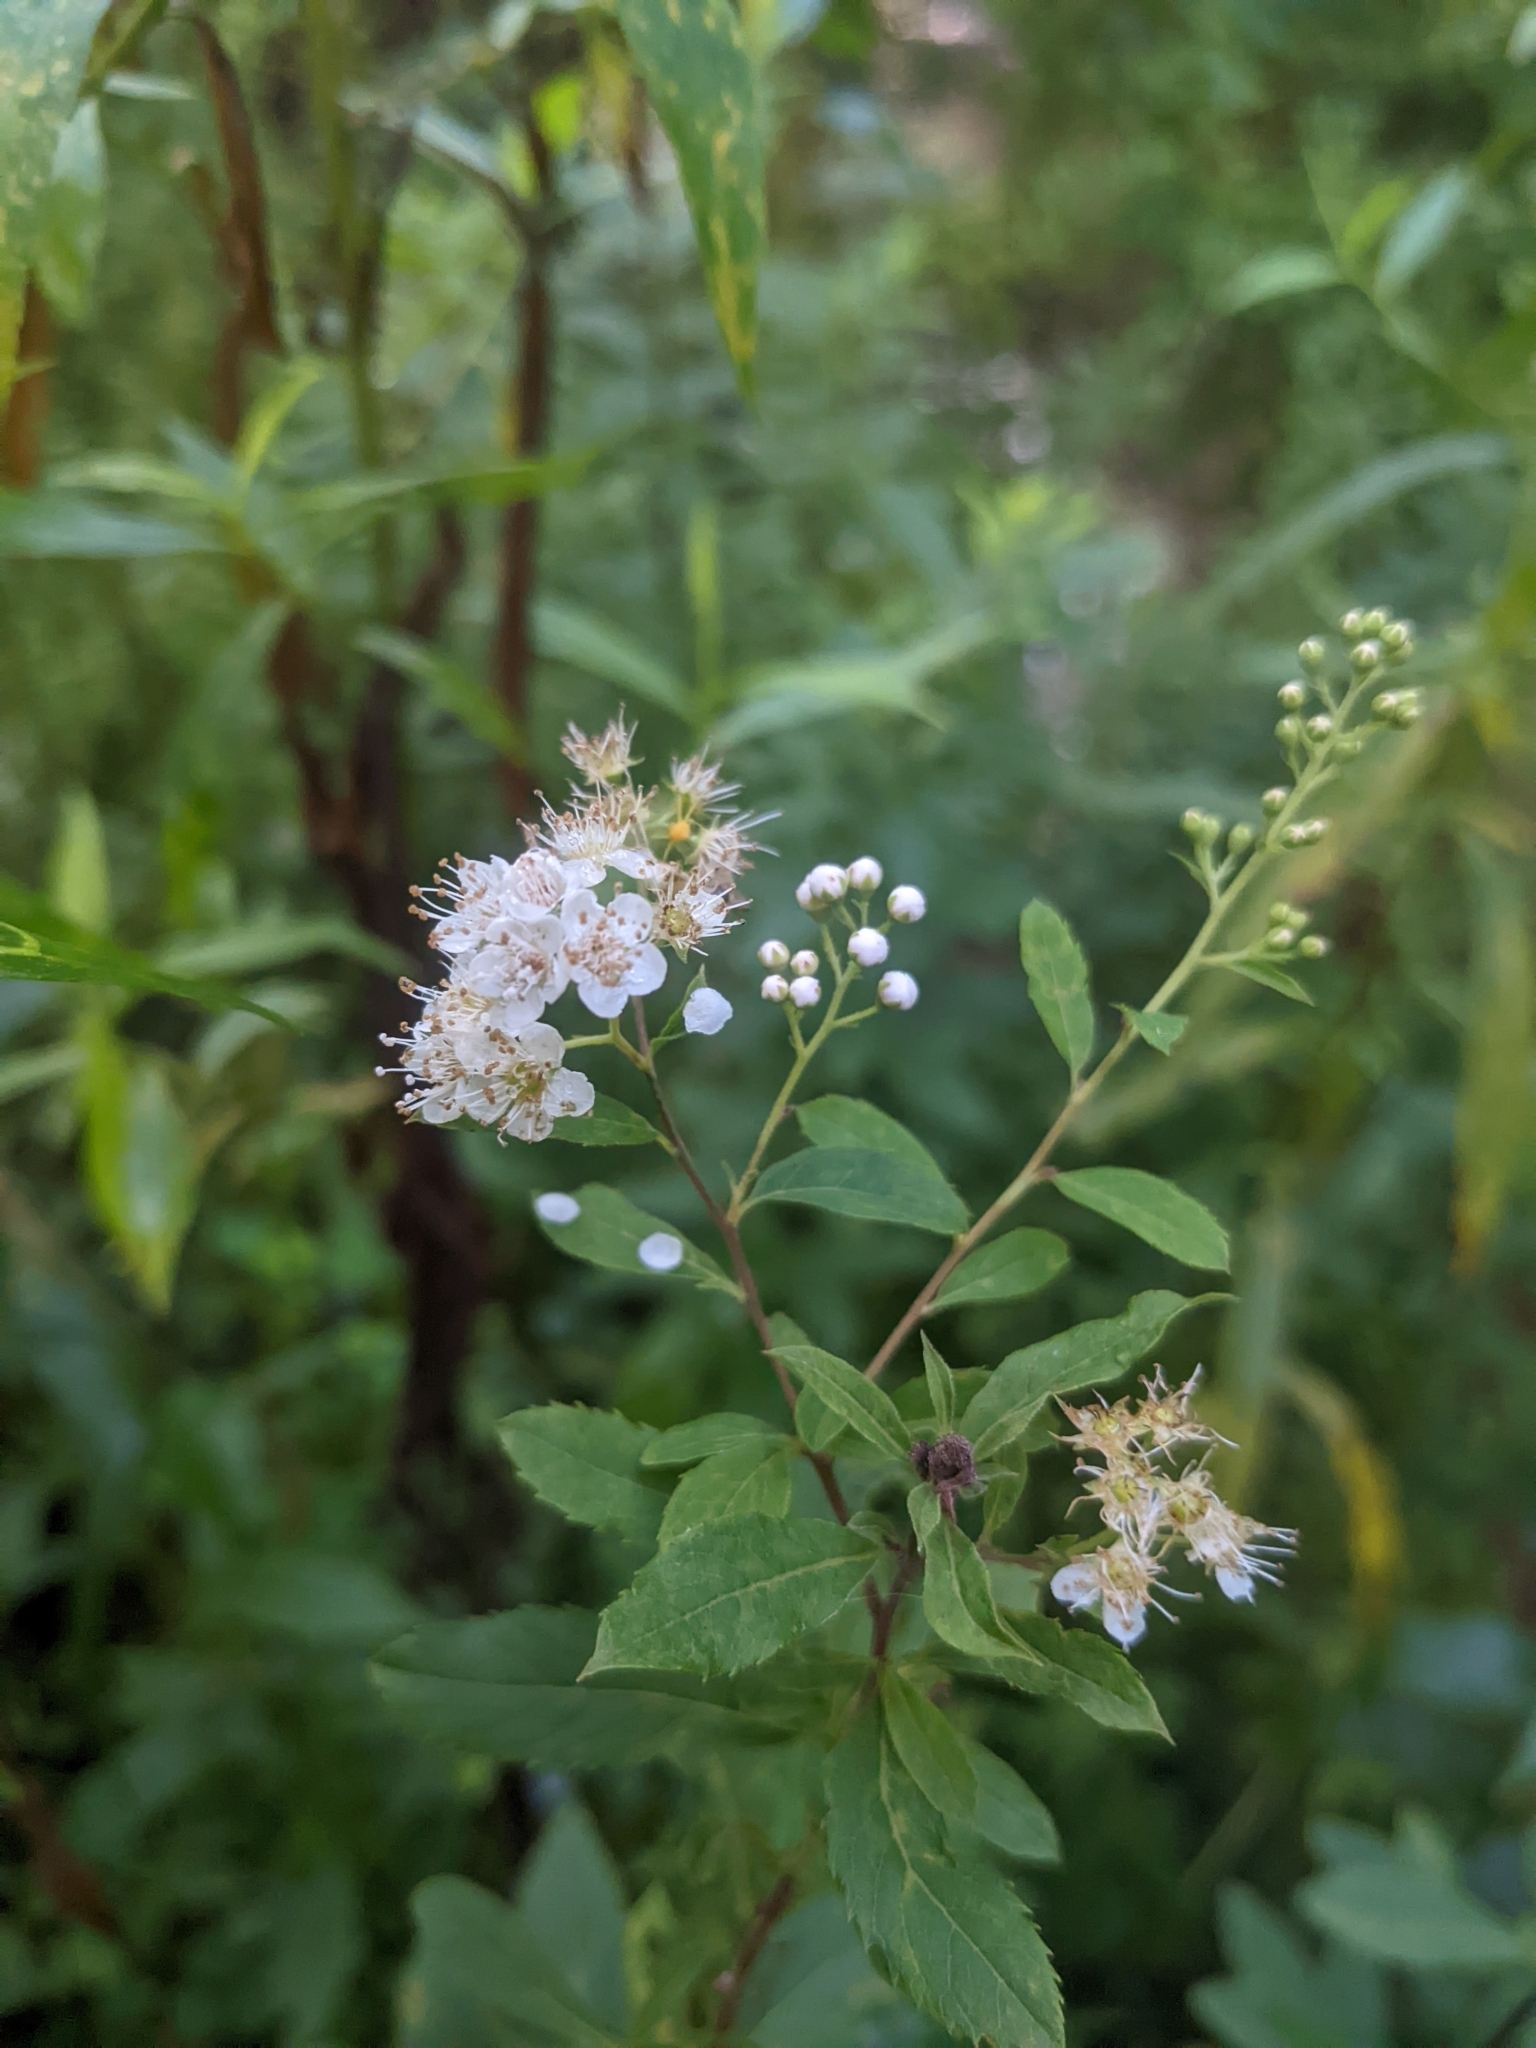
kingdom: Plantae
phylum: Tracheophyta
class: Magnoliopsida
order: Rosales
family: Rosaceae
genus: Spiraea
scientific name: Spiraea alba
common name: Pale bridewort
